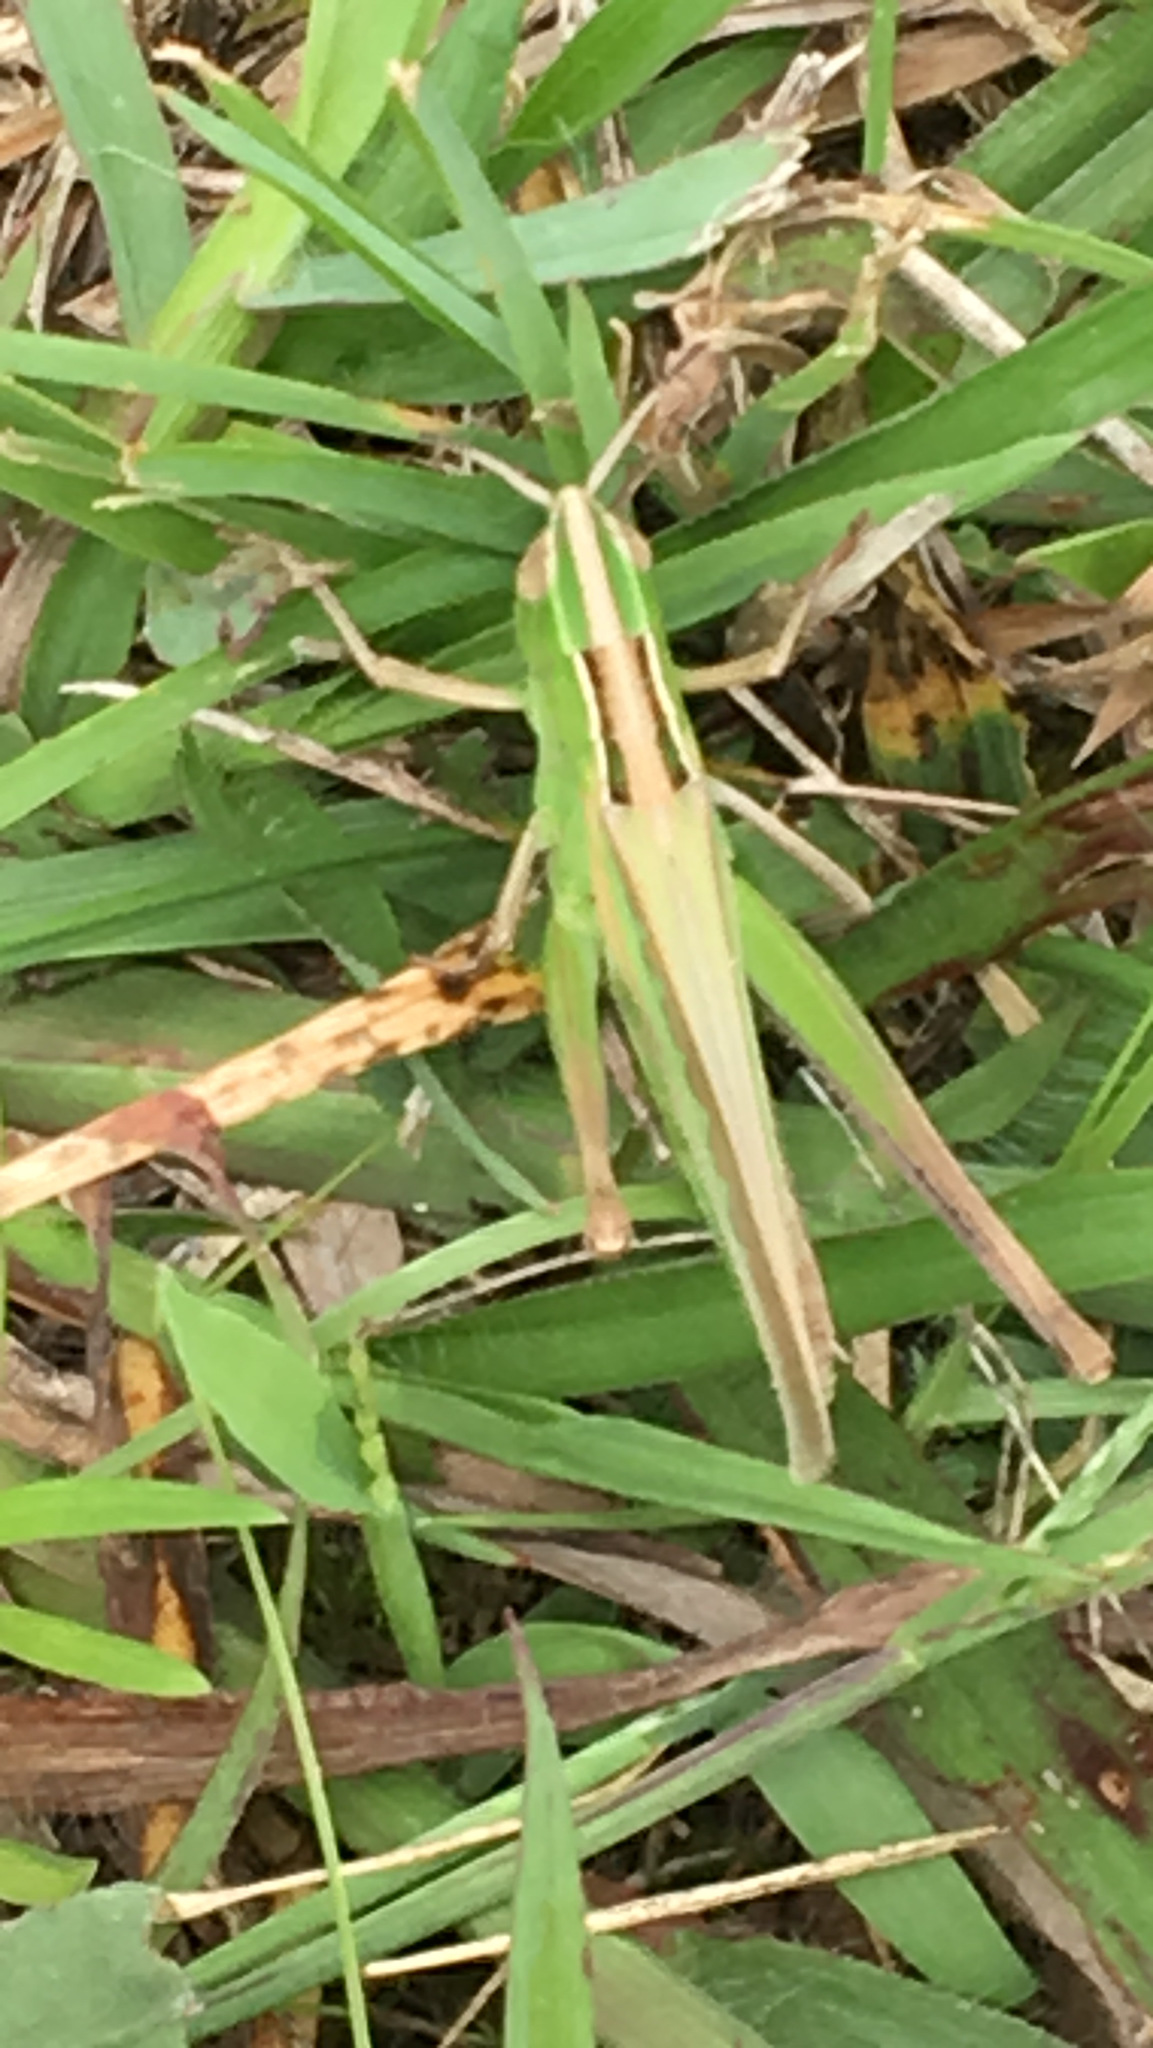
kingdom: Animalia
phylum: Arthropoda
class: Insecta
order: Orthoptera
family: Acrididae
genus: Syrbula
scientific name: Syrbula admirabilis
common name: Handsome grasshopper
